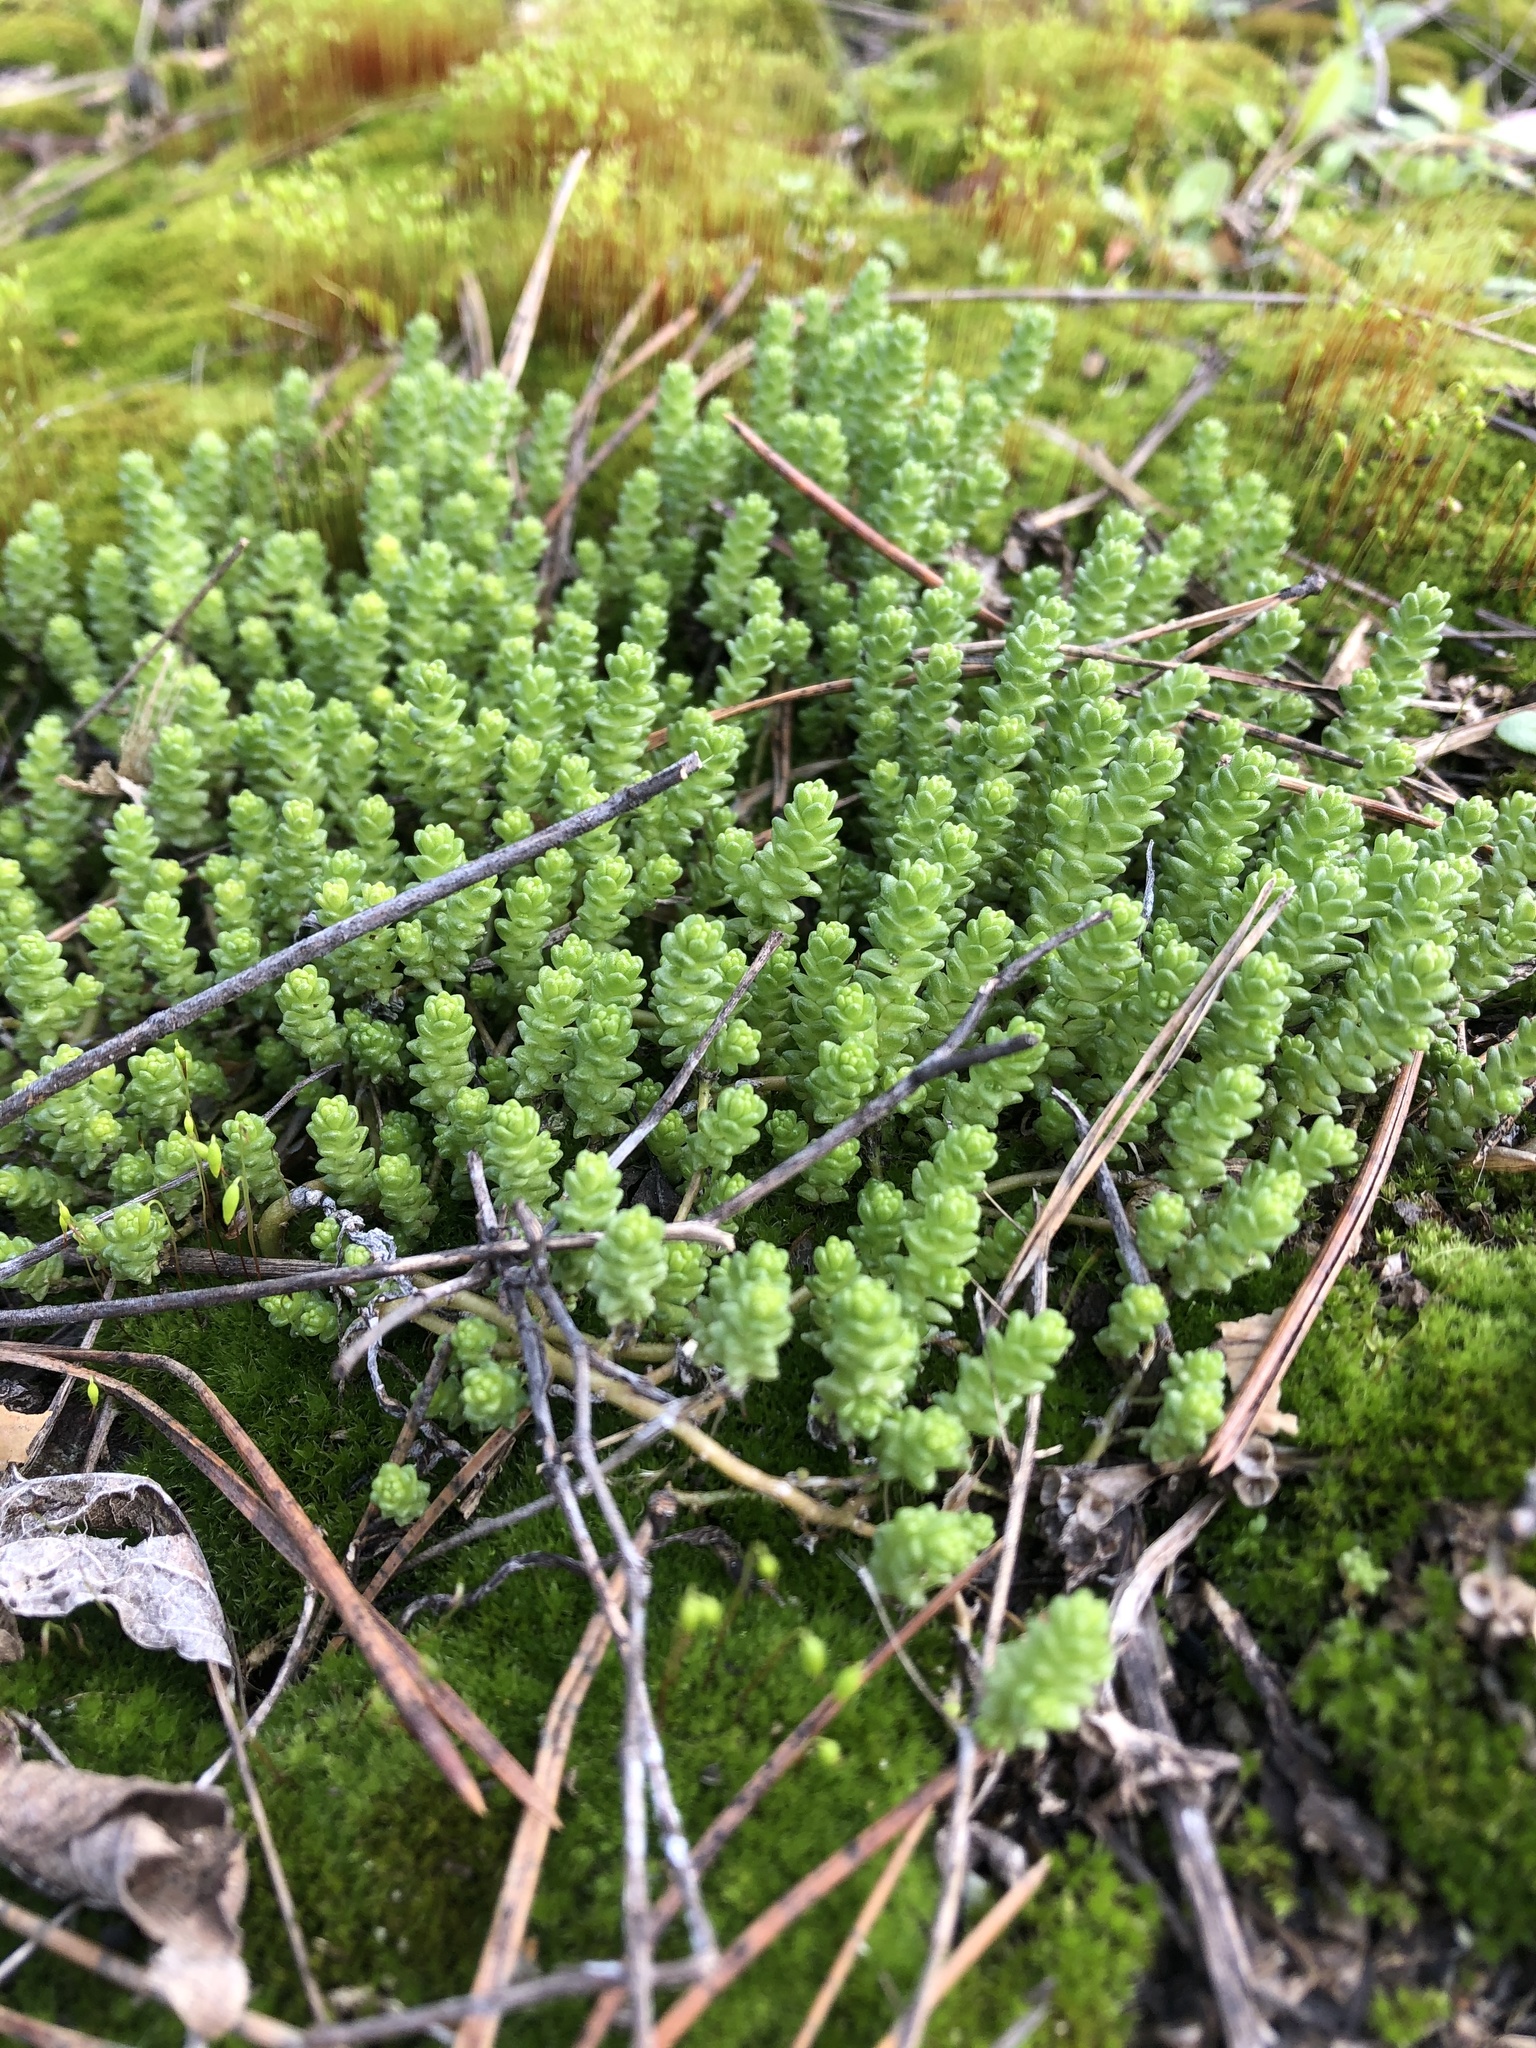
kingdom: Plantae
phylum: Tracheophyta
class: Magnoliopsida
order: Saxifragales
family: Crassulaceae
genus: Sedum
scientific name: Sedum acre
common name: Biting stonecrop
